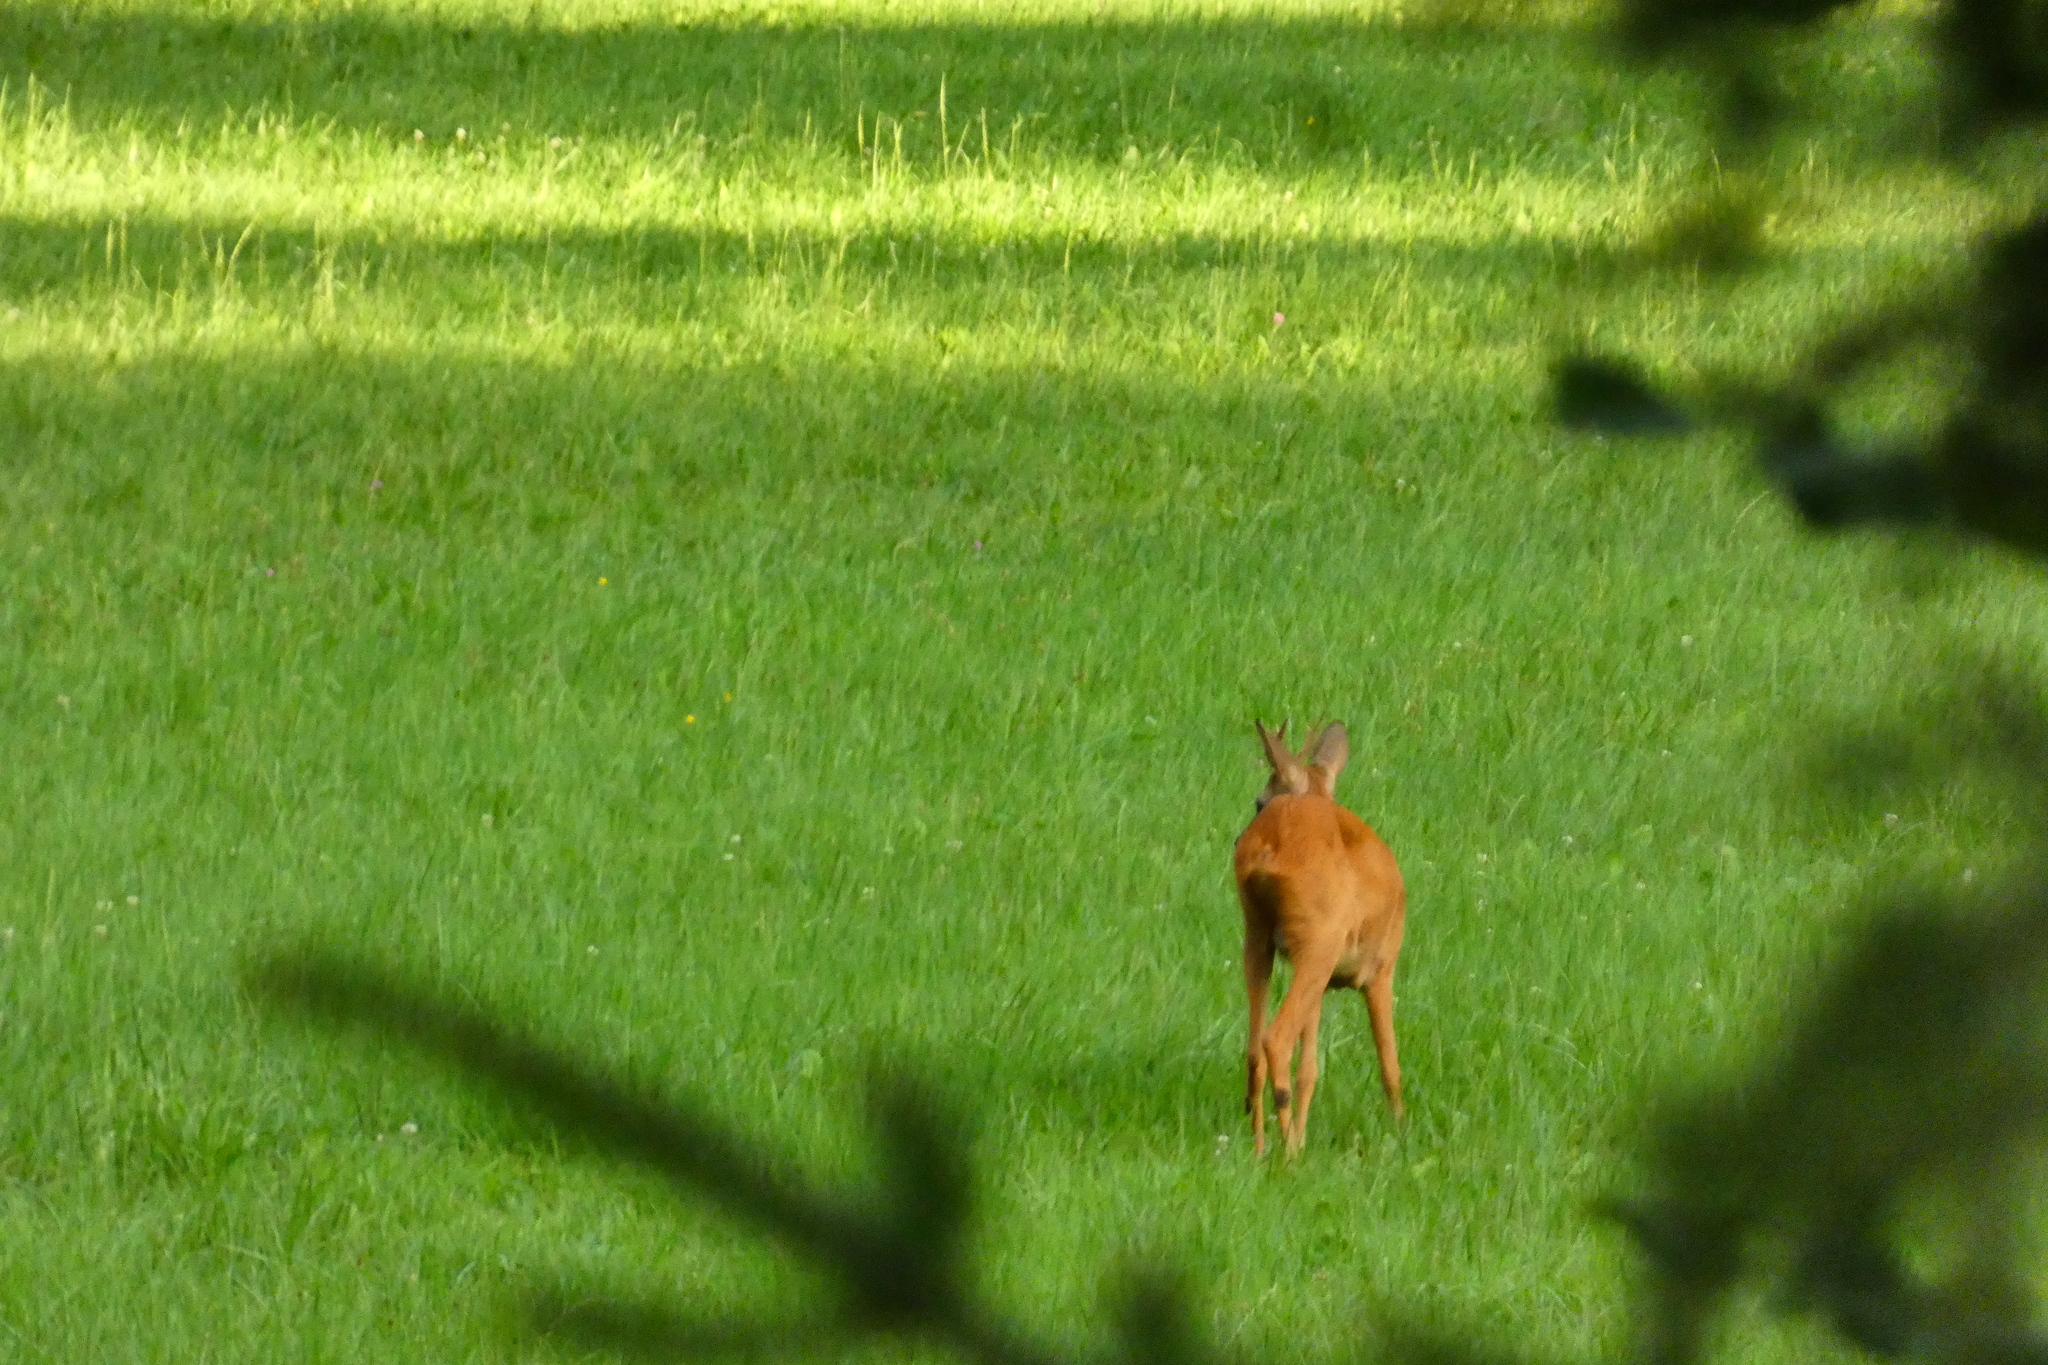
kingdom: Animalia
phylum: Chordata
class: Mammalia
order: Artiodactyla
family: Cervidae
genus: Capreolus
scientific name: Capreolus capreolus
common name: Western roe deer
